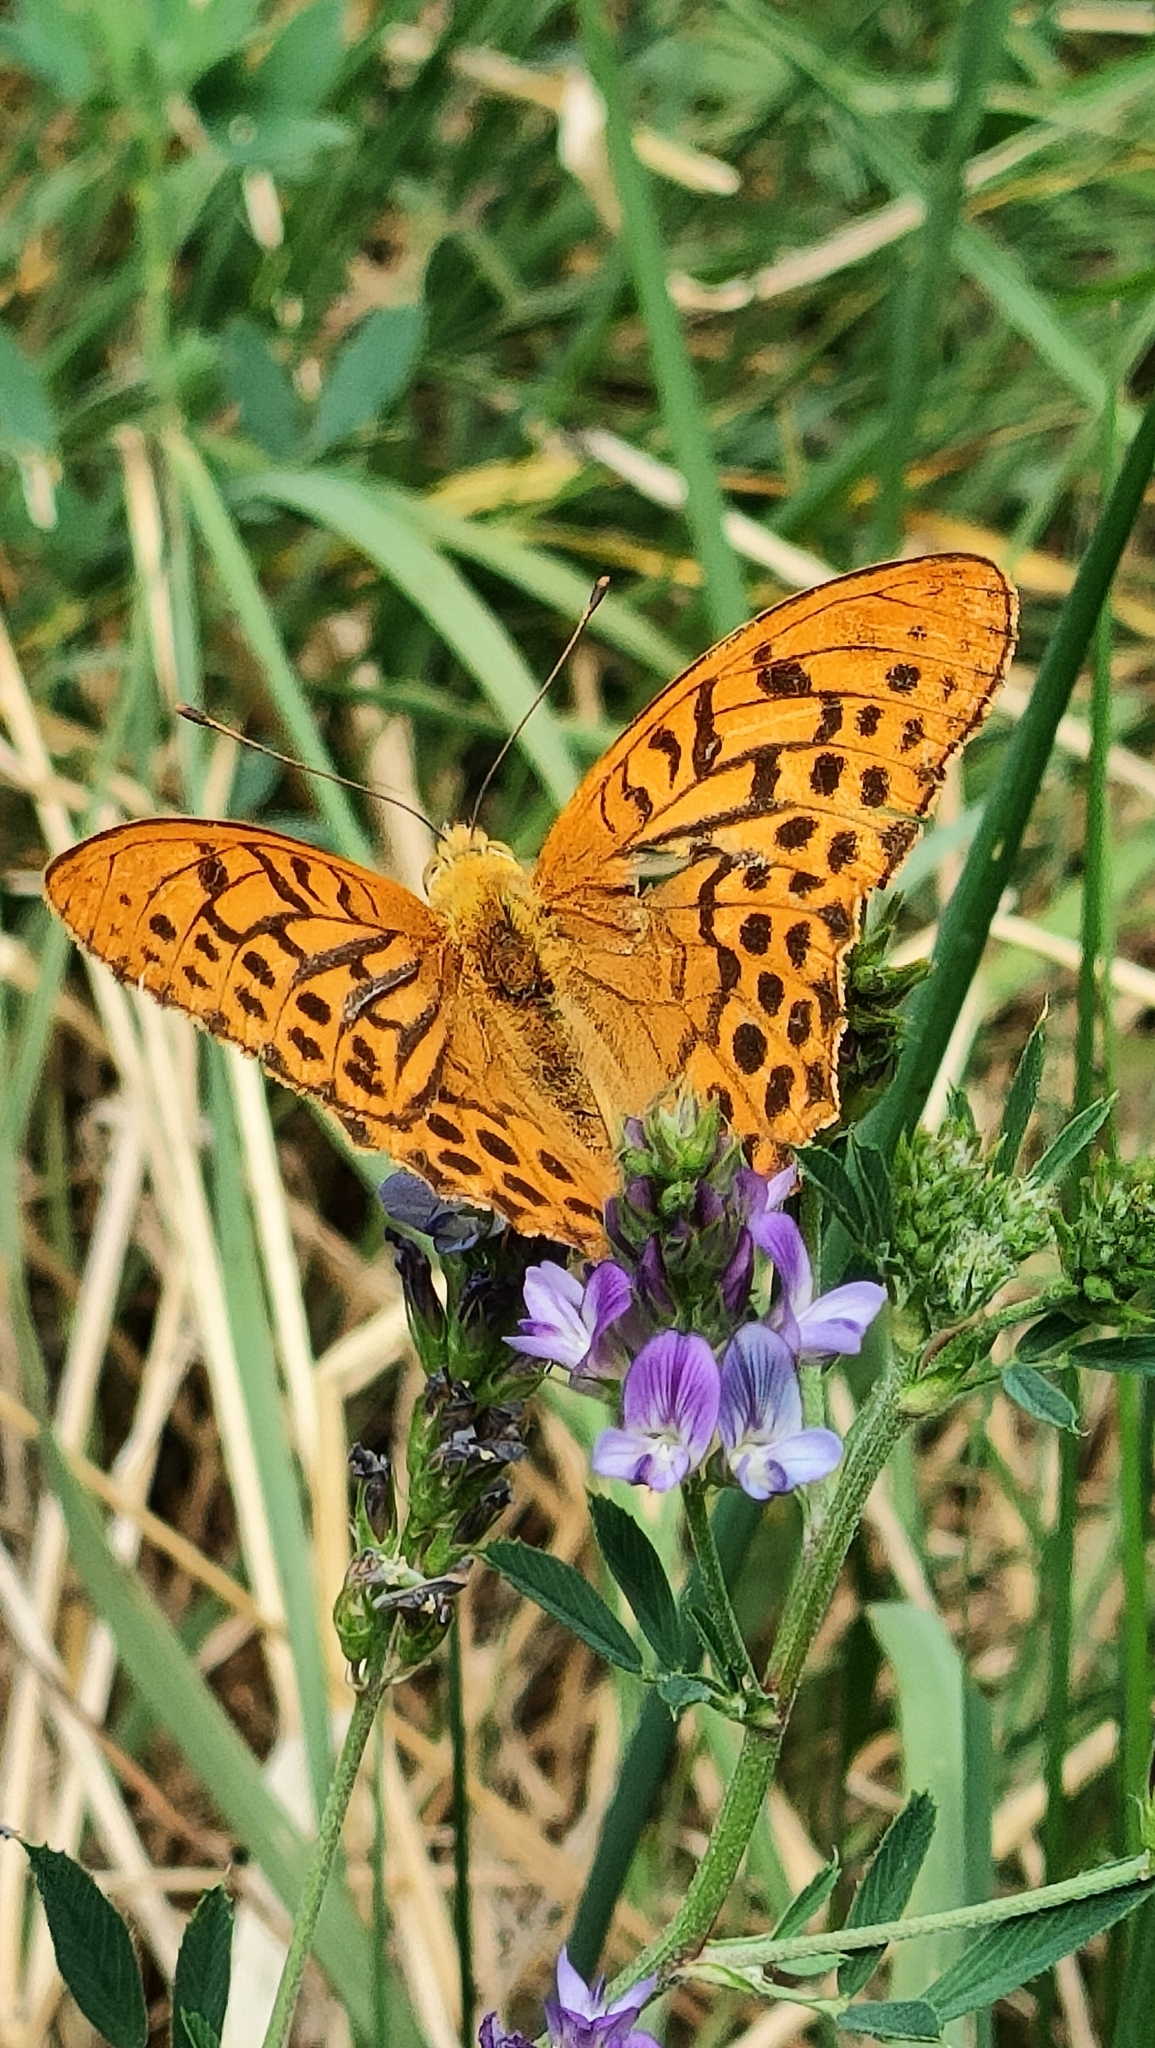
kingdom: Animalia
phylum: Arthropoda
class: Insecta
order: Lepidoptera
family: Nymphalidae
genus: Argynnis
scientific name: Argynnis paphia
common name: Silver-washed fritillary
